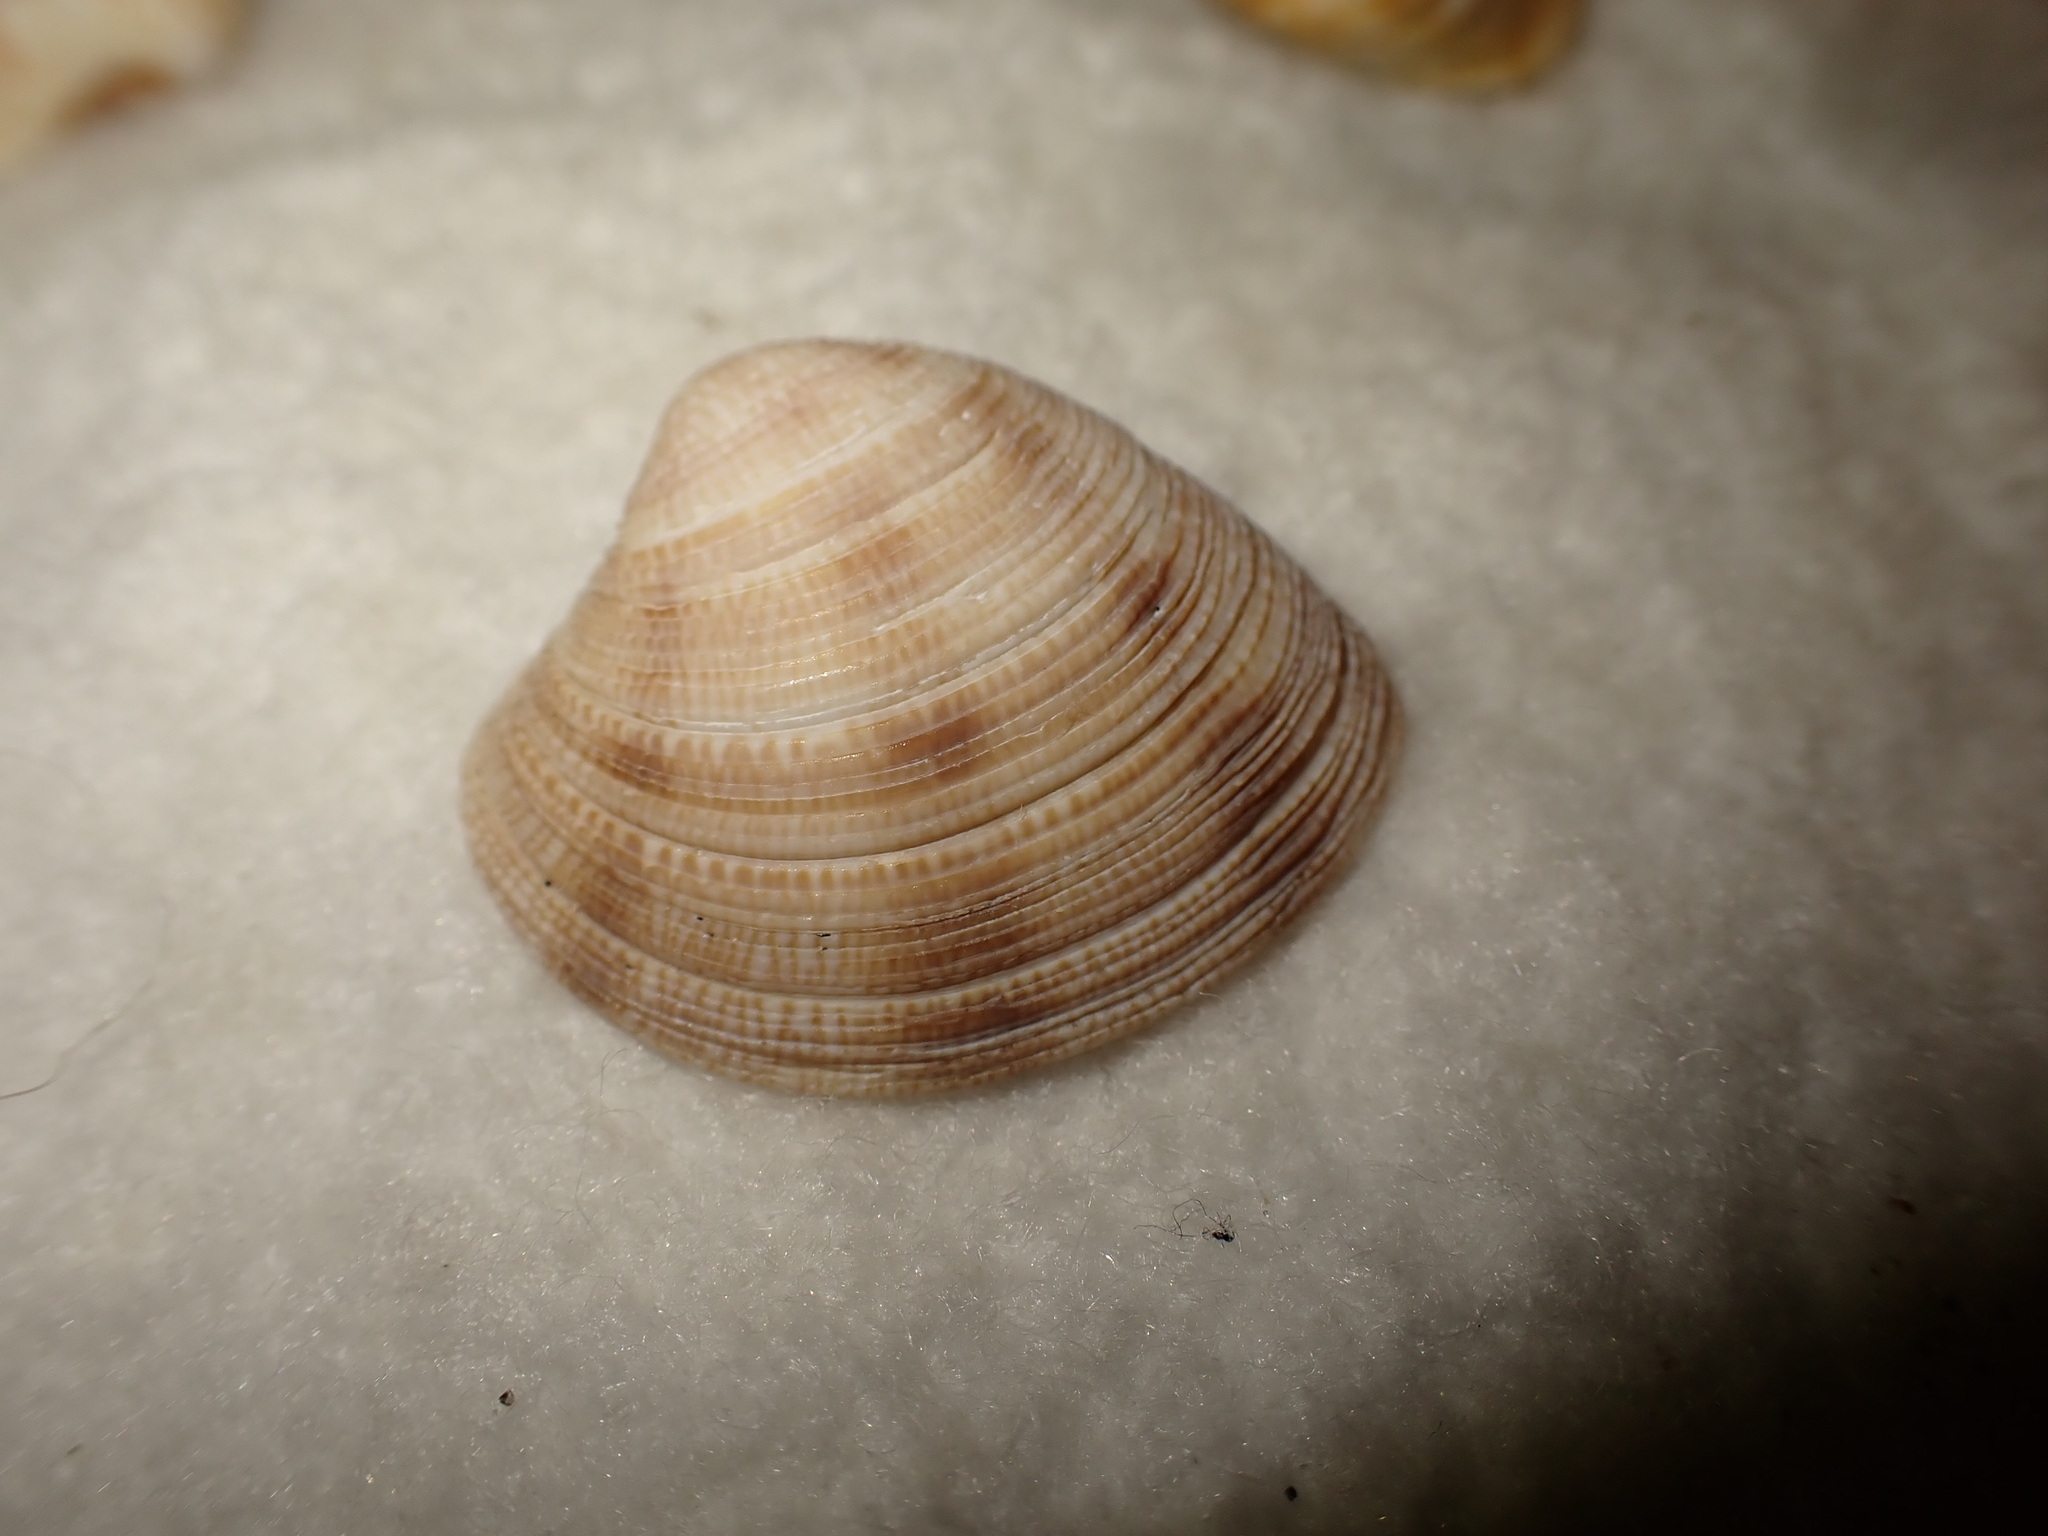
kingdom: Animalia
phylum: Mollusca
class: Bivalvia
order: Venerida
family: Veneridae
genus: Chamelea
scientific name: Chamelea striatula
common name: Striped venus
